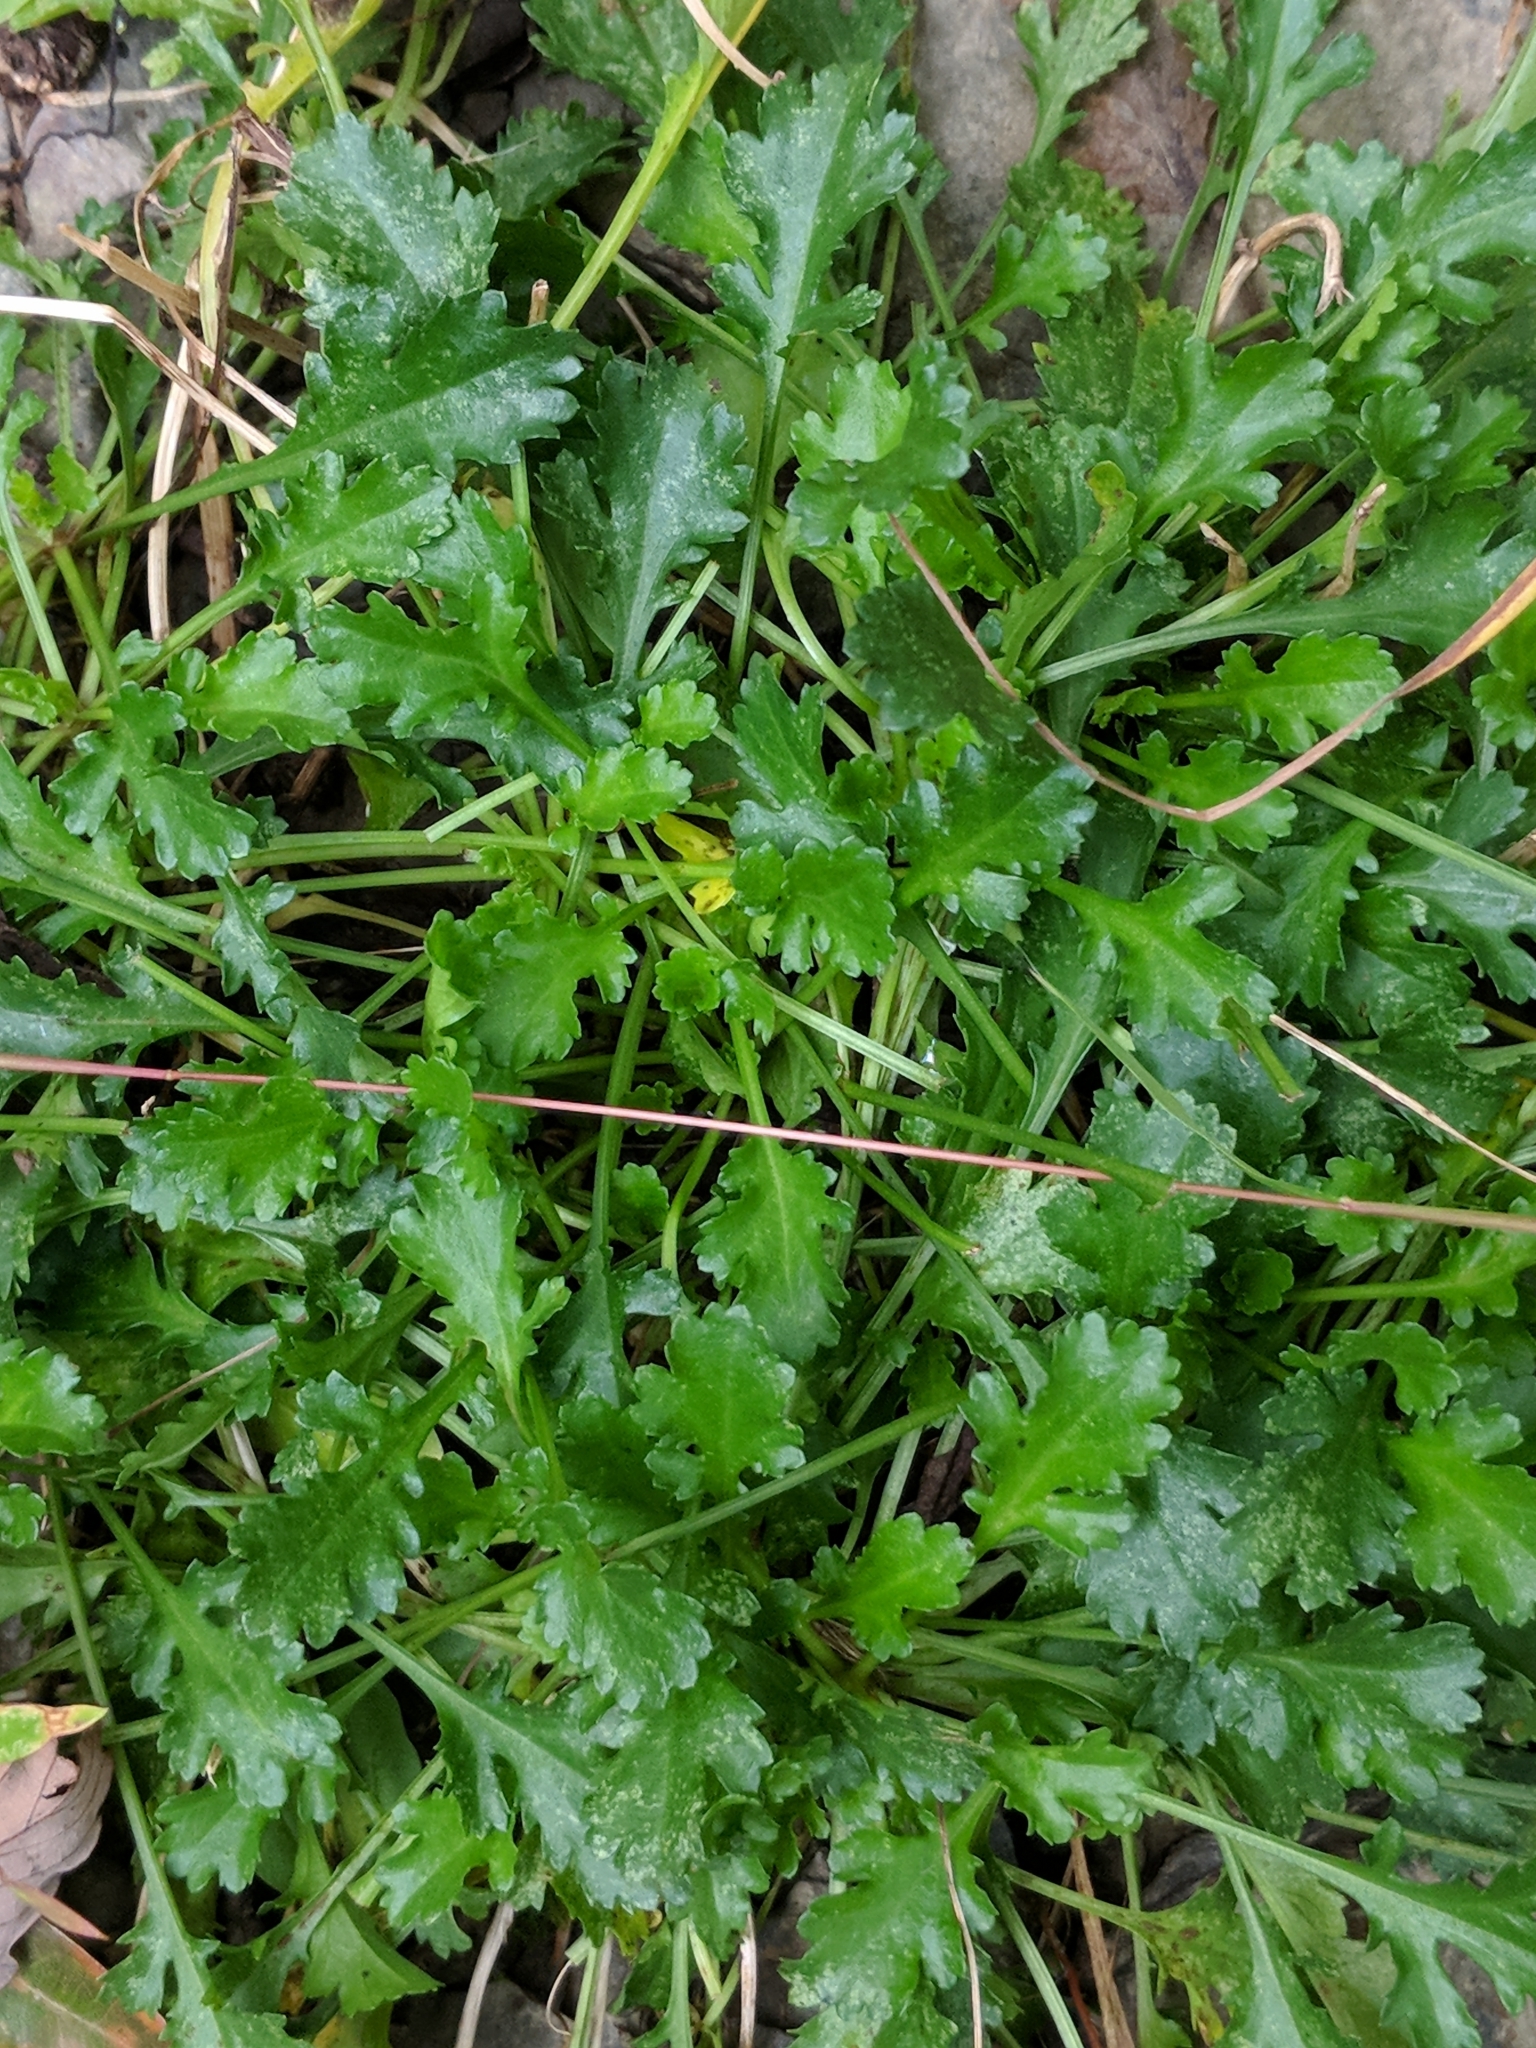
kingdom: Plantae
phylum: Tracheophyta
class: Magnoliopsida
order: Asterales
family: Asteraceae
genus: Leucanthemum
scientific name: Leucanthemum vulgare
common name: Oxeye daisy
